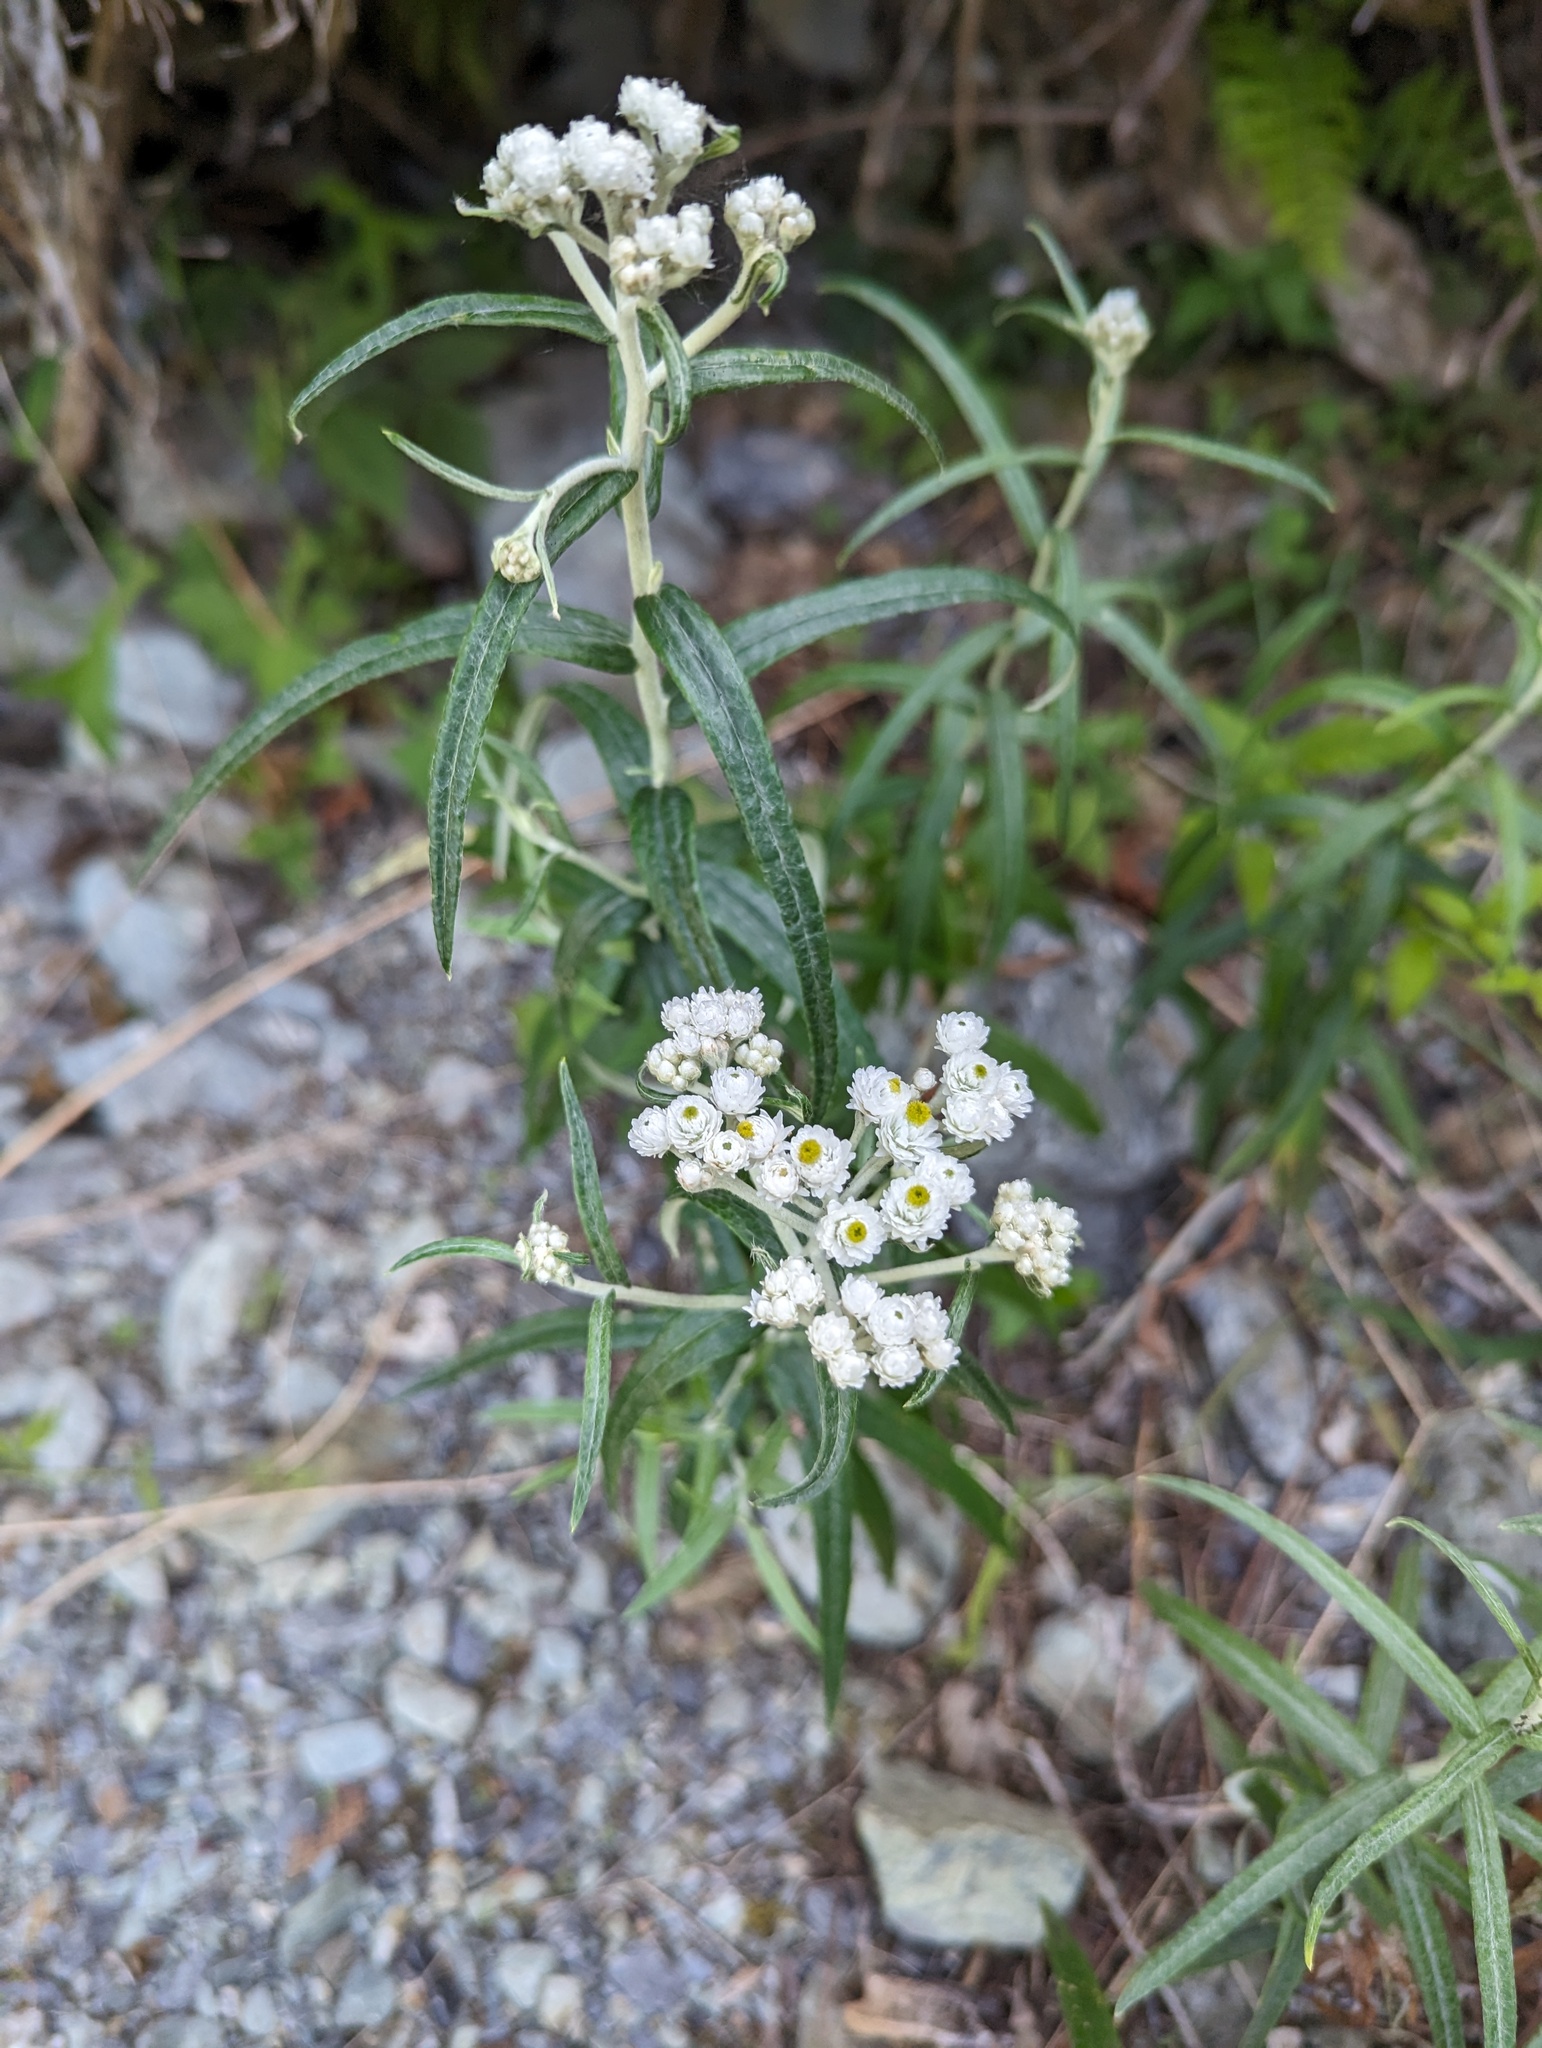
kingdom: Plantae
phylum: Tracheophyta
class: Magnoliopsida
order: Asterales
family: Asteraceae
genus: Anaphalis
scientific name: Anaphalis margaritacea
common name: Pearly everlasting
